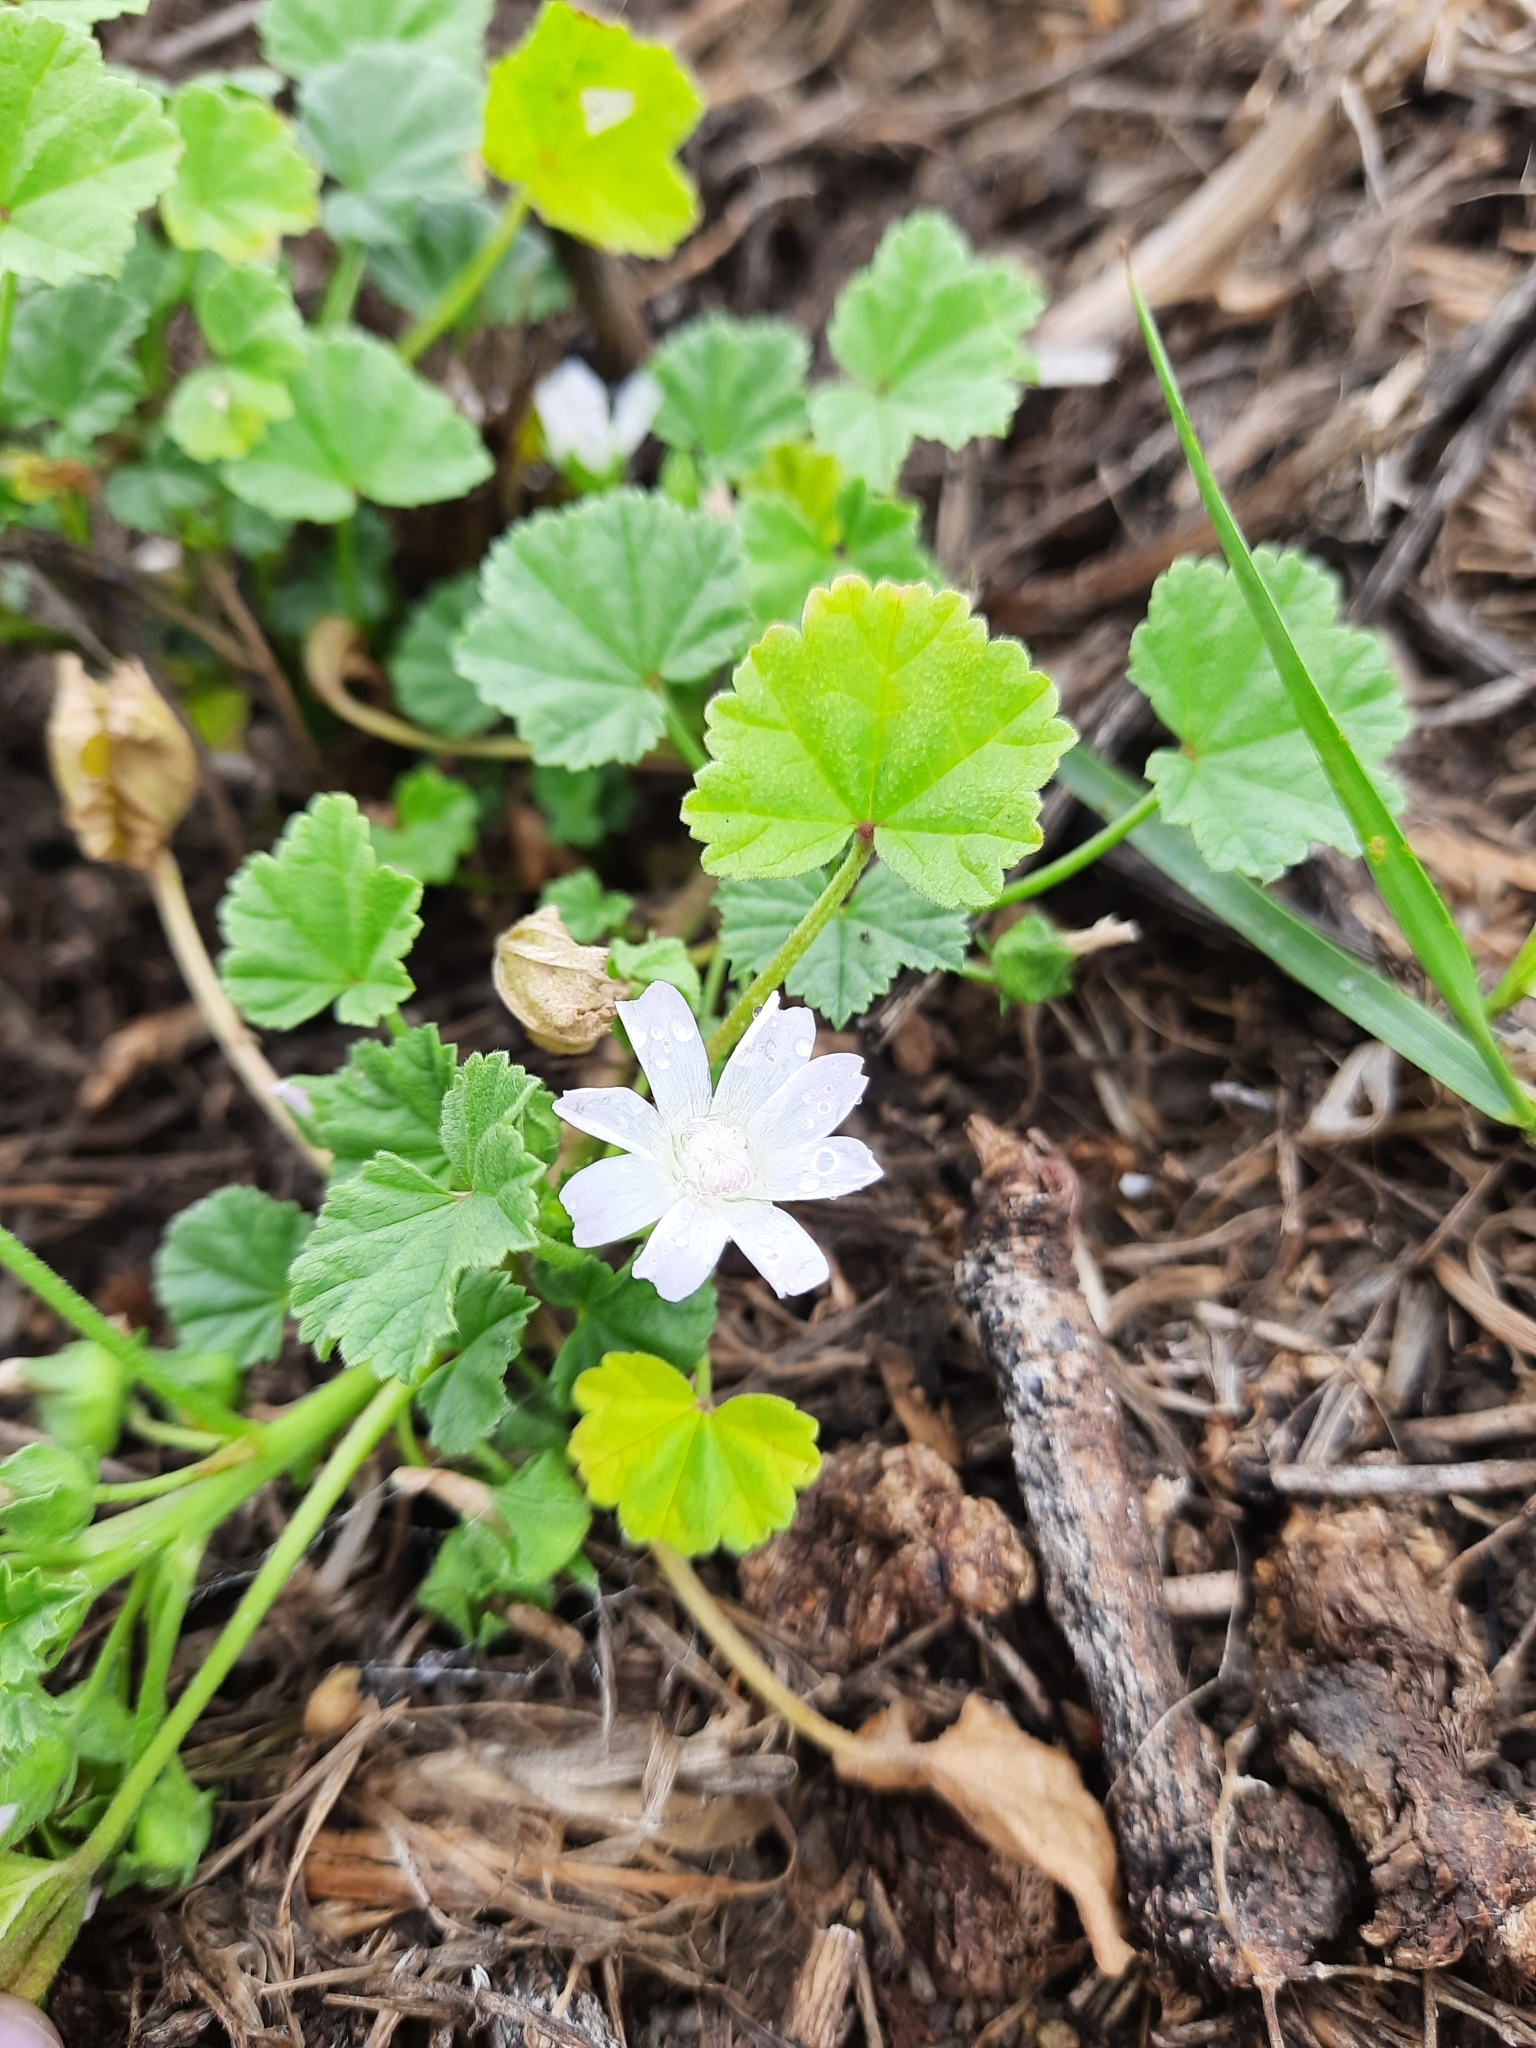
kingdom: Plantae
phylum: Tracheophyta
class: Magnoliopsida
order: Malvales
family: Malvaceae
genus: Malva
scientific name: Malva neglecta
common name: Common mallow
